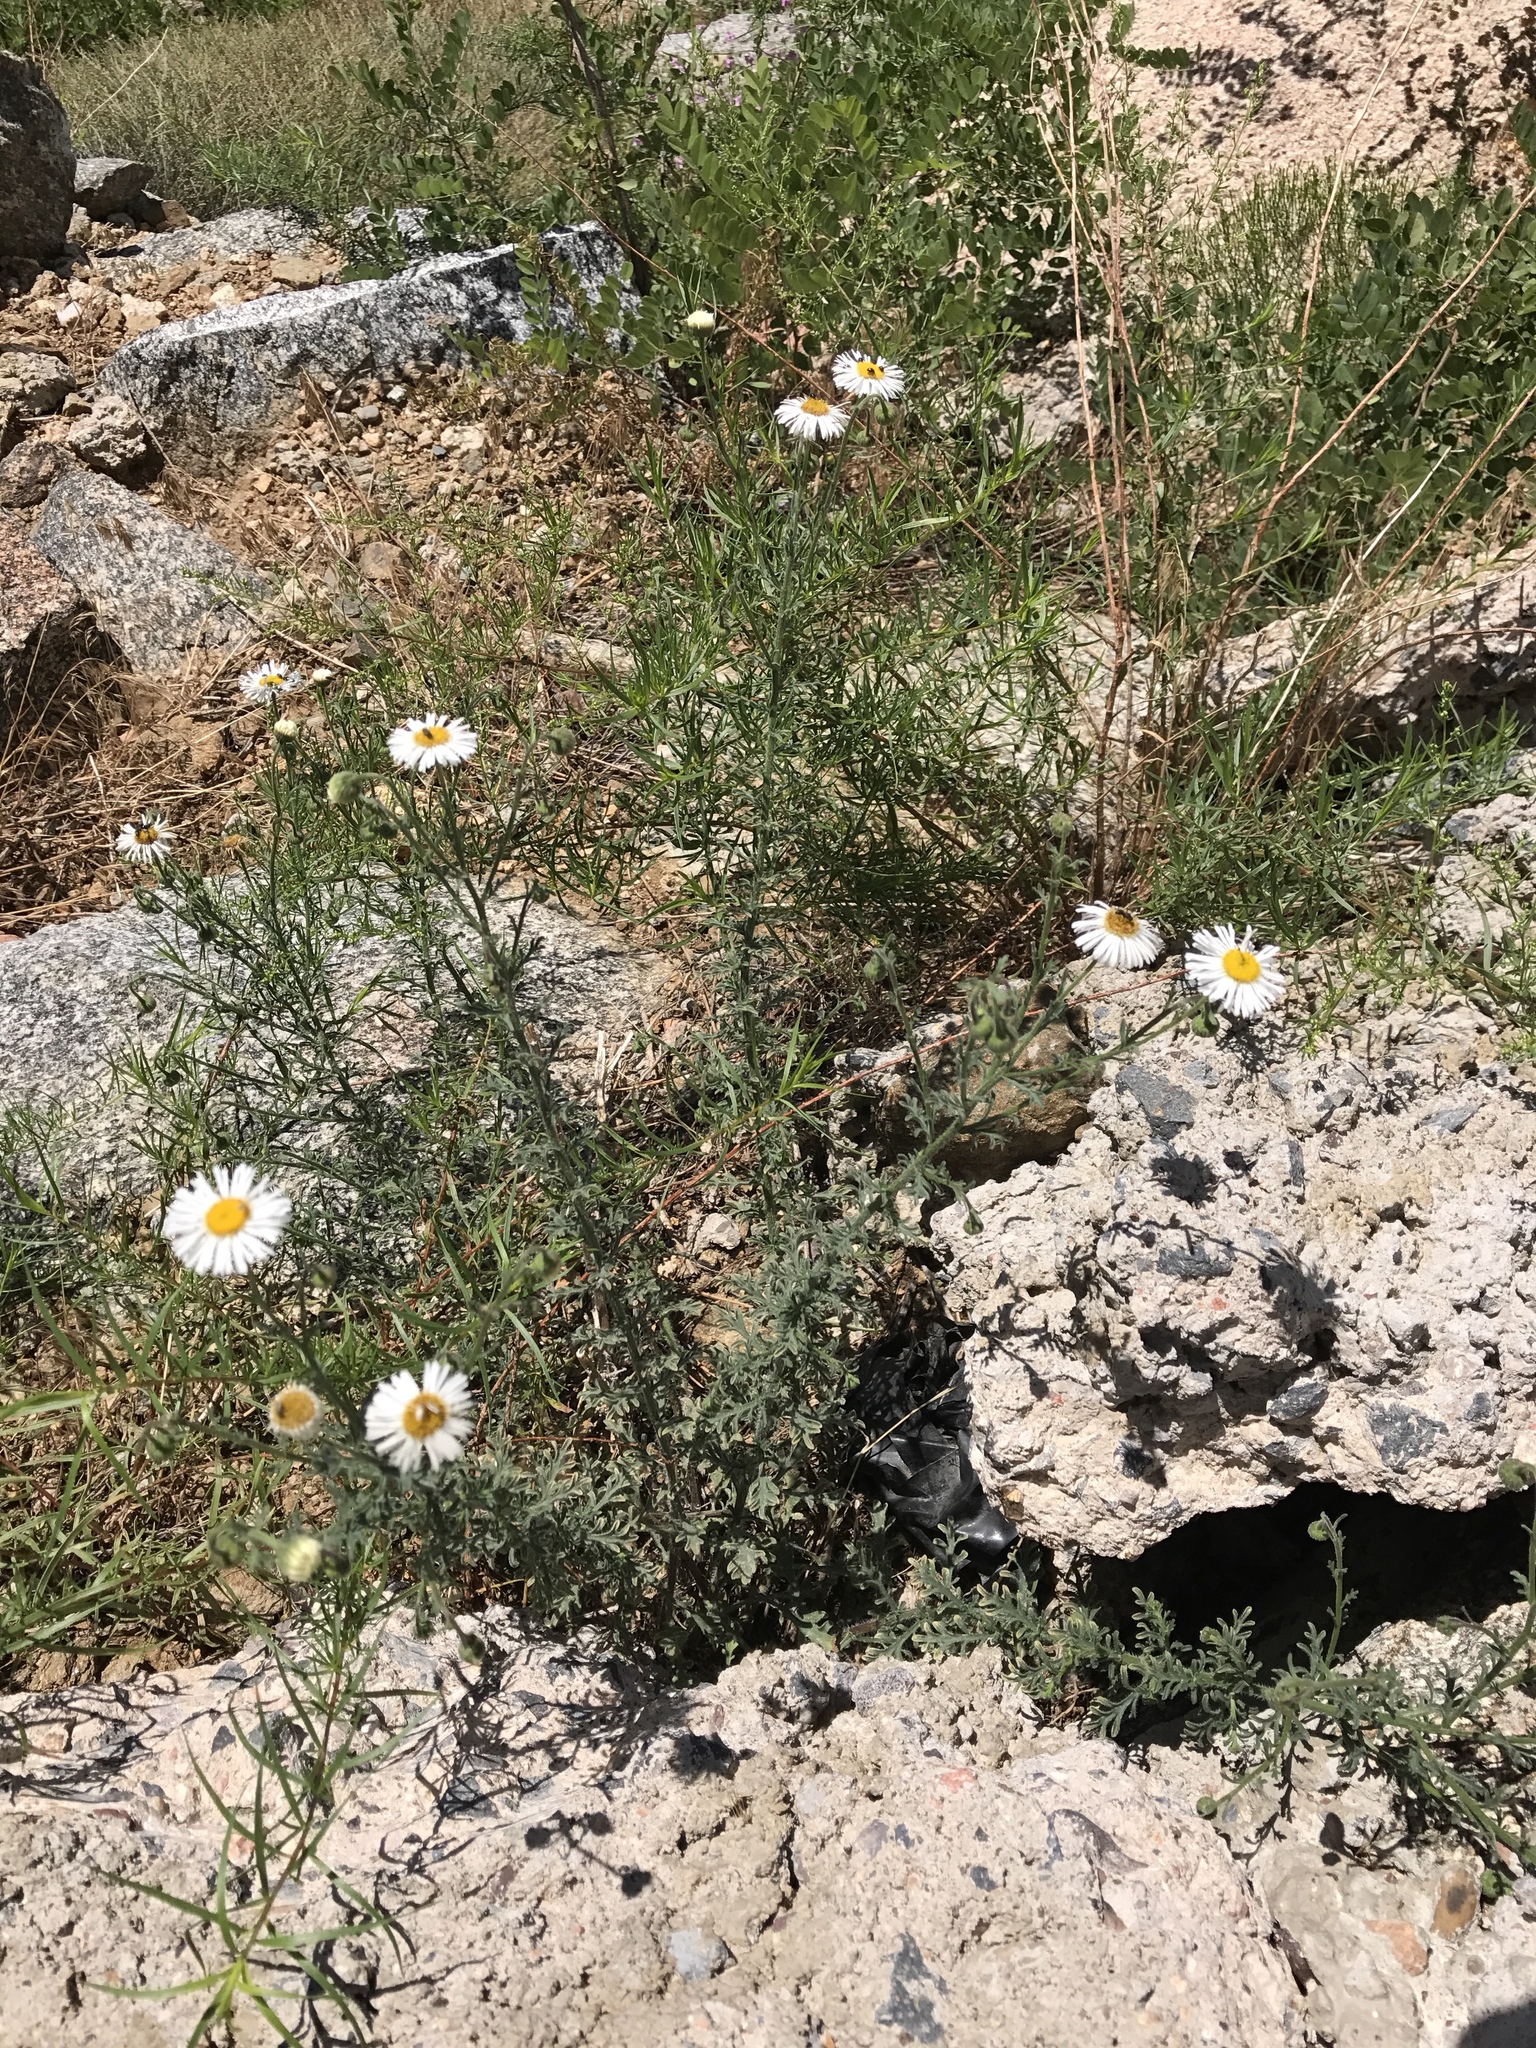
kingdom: Plantae
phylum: Tracheophyta
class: Magnoliopsida
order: Asterales
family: Asteraceae
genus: Erigeron
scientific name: Erigeron oreophilus
